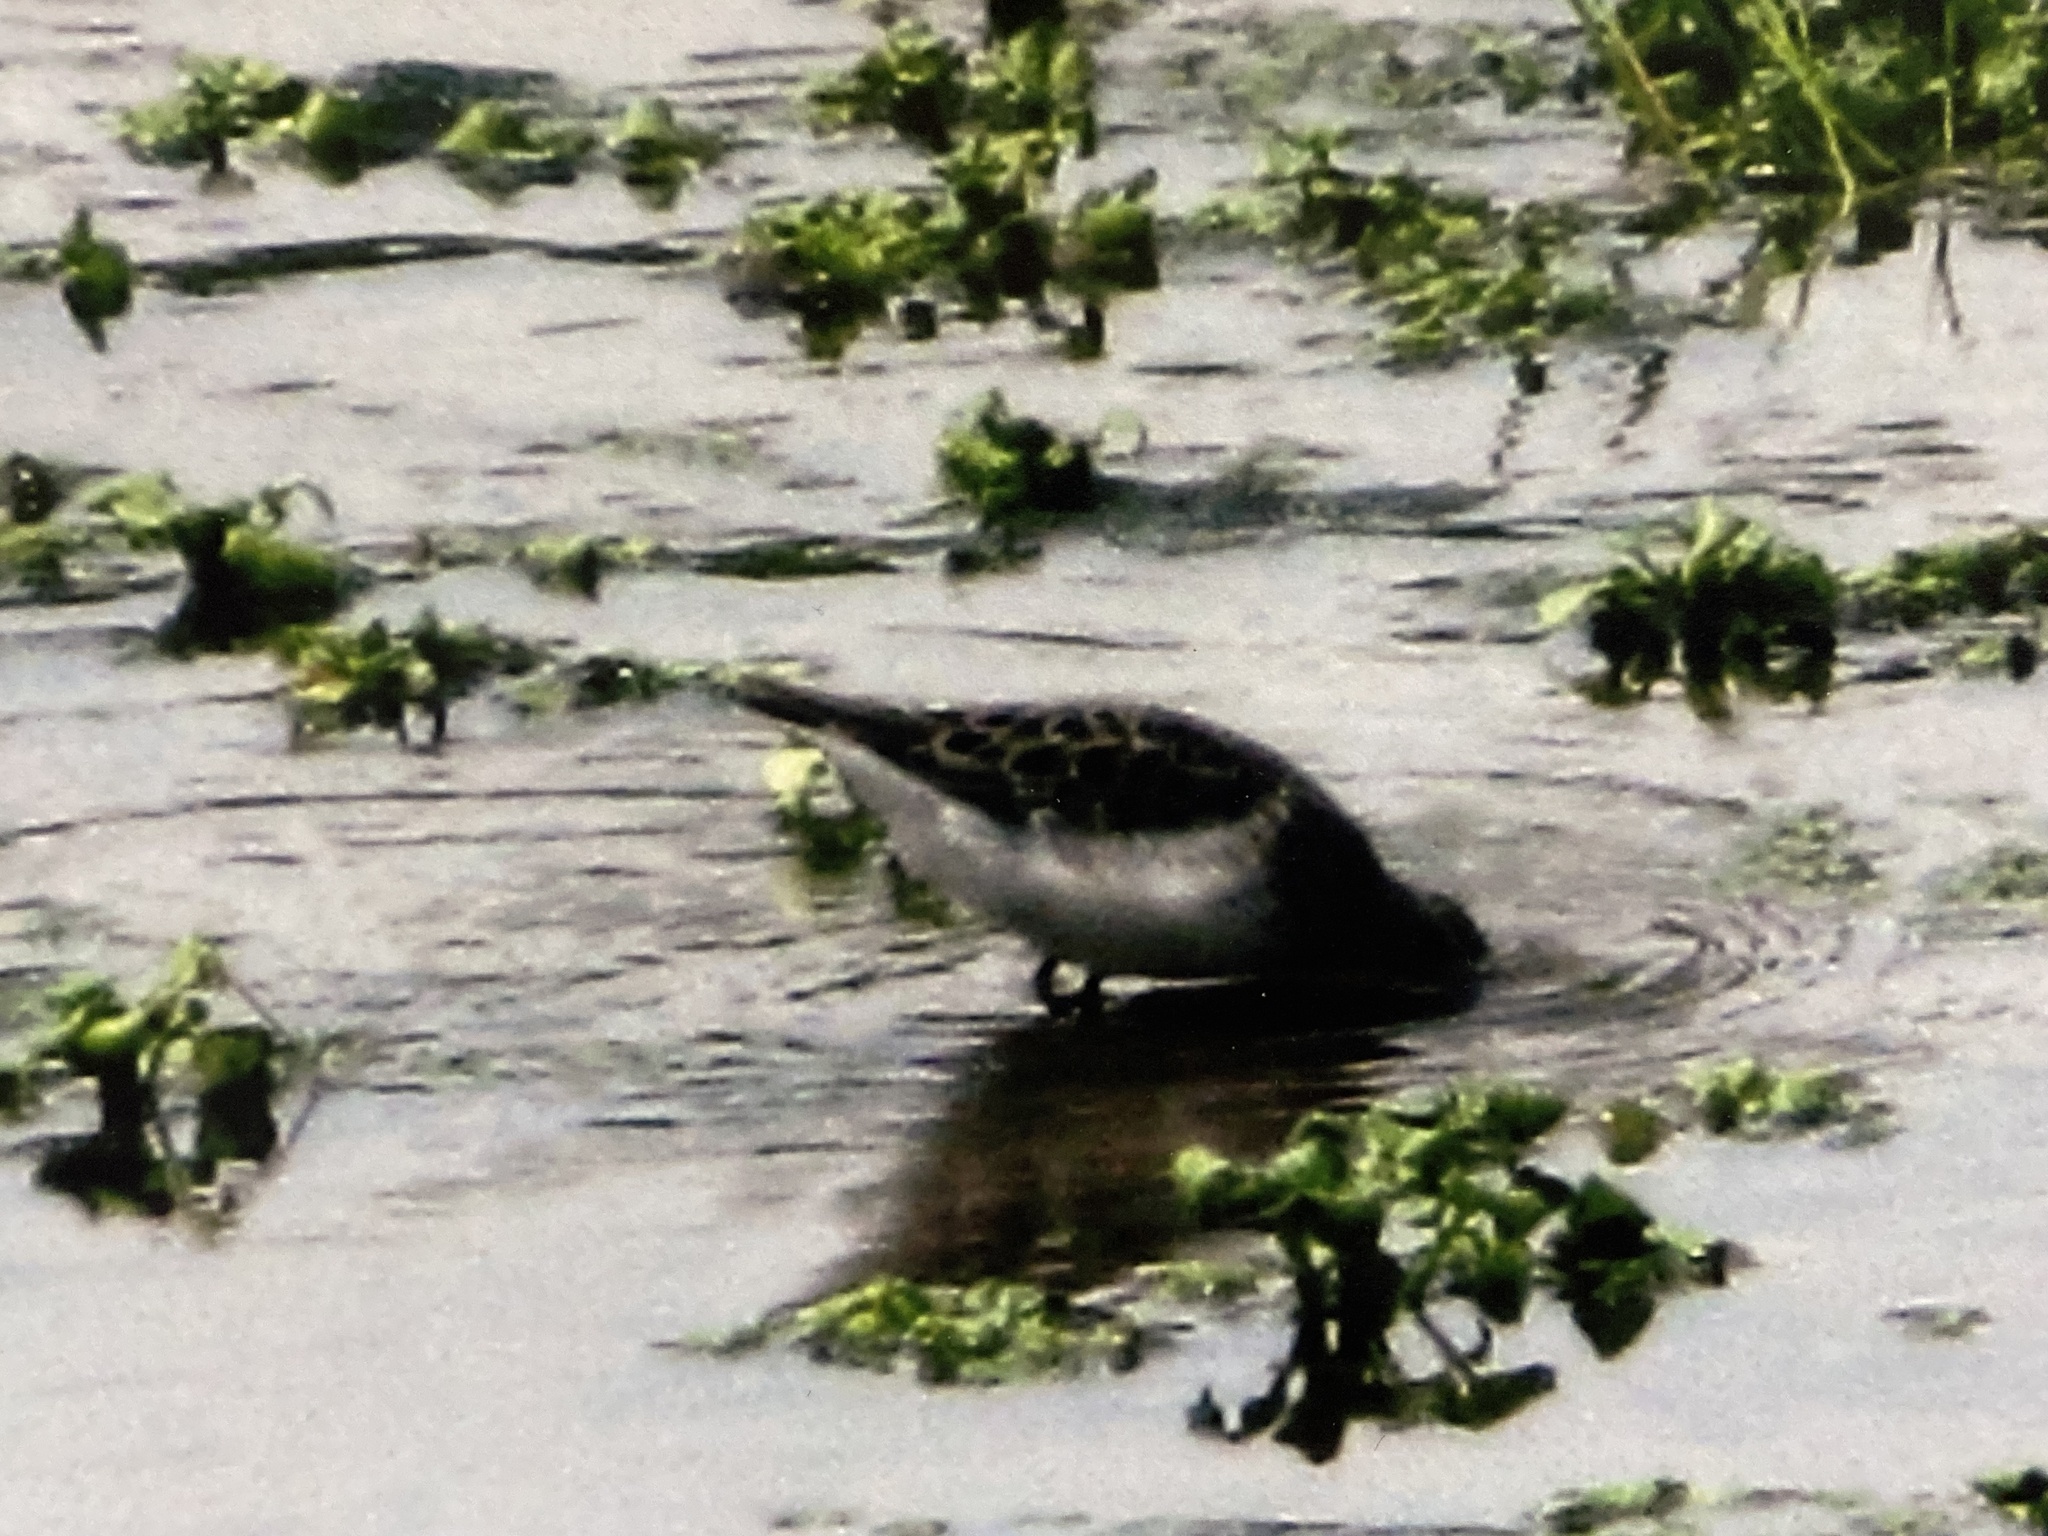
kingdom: Animalia
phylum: Chordata
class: Aves
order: Charadriiformes
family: Scolopacidae
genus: Calidris
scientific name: Calidris minutilla
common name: Least sandpiper
